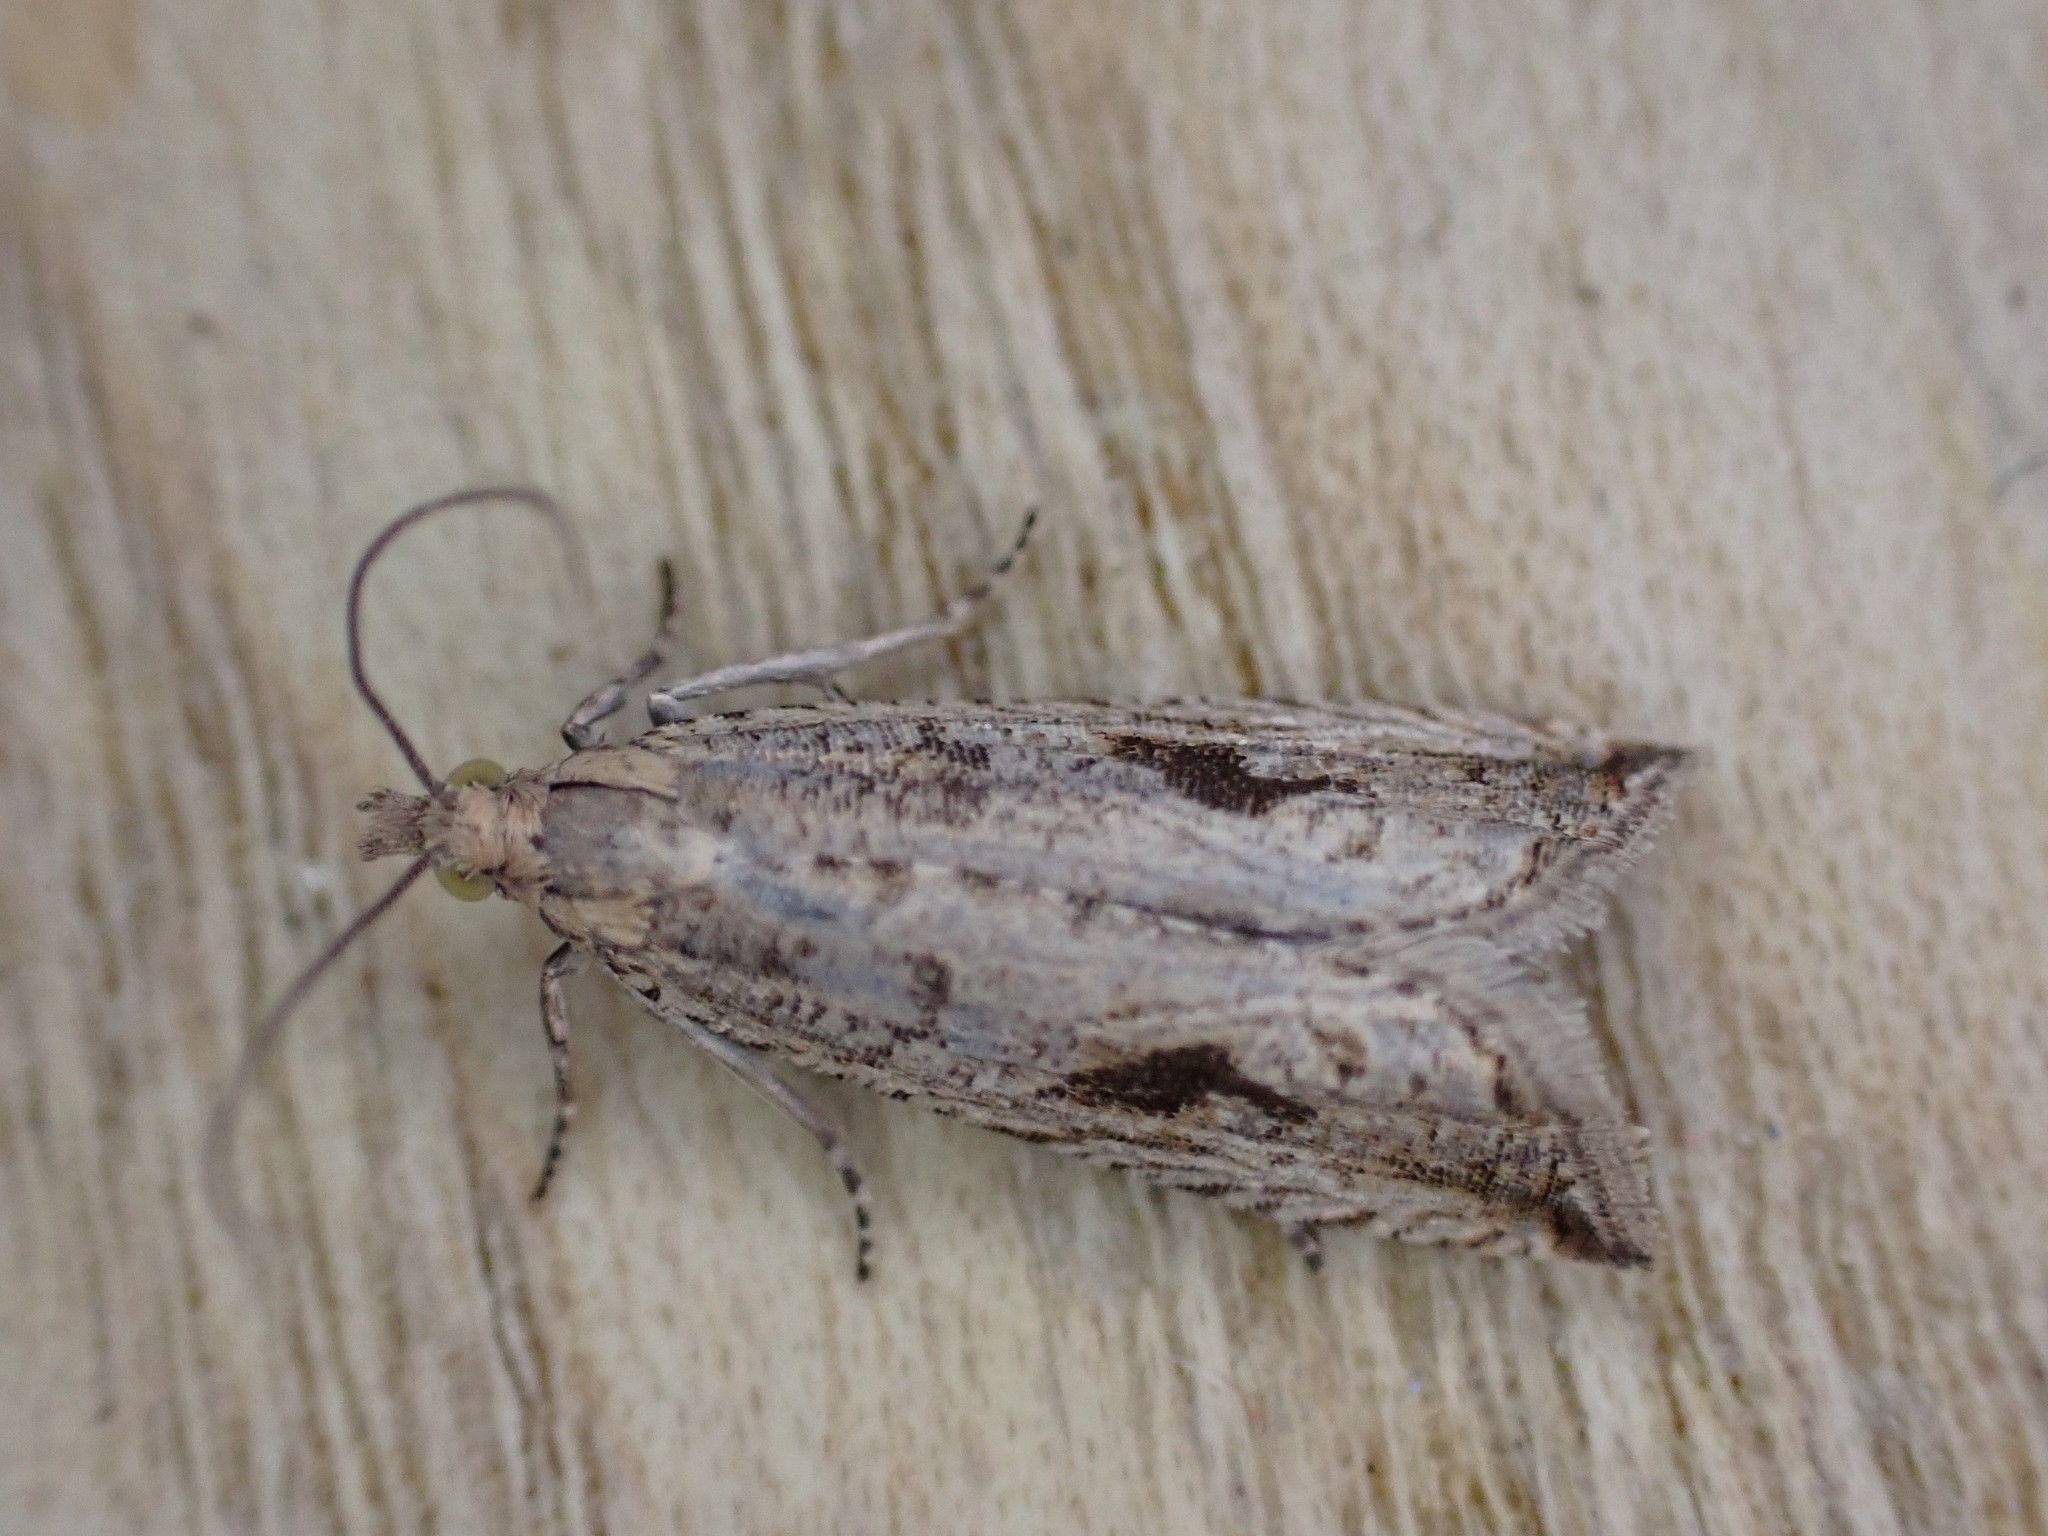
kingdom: Animalia
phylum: Arthropoda
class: Insecta
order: Lepidoptera
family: Tortricidae
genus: Bactra
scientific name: Bactra furfurana
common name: Mottled marble
